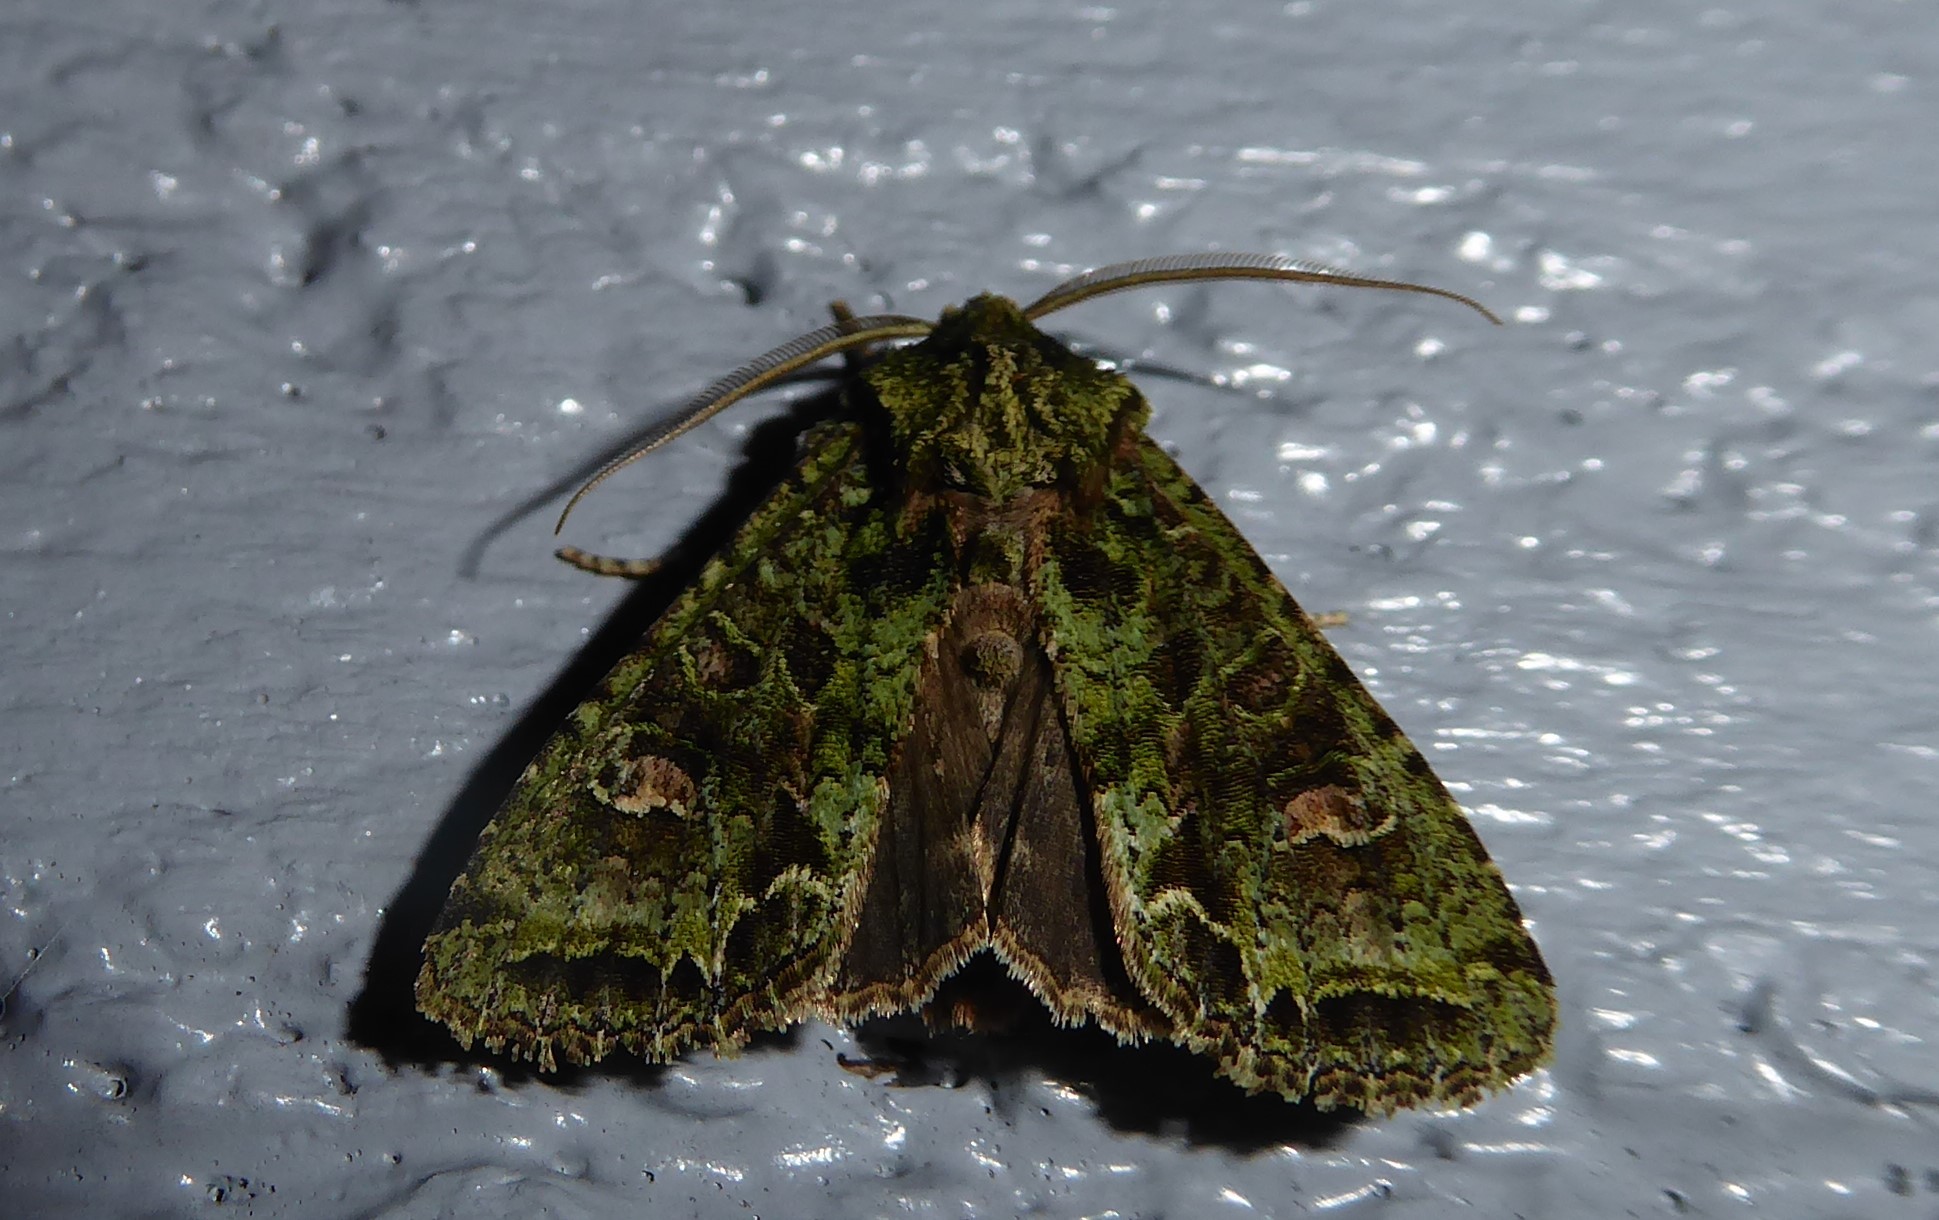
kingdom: Animalia
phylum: Arthropoda
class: Insecta
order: Lepidoptera
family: Noctuidae
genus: Ichneutica
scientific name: Ichneutica
